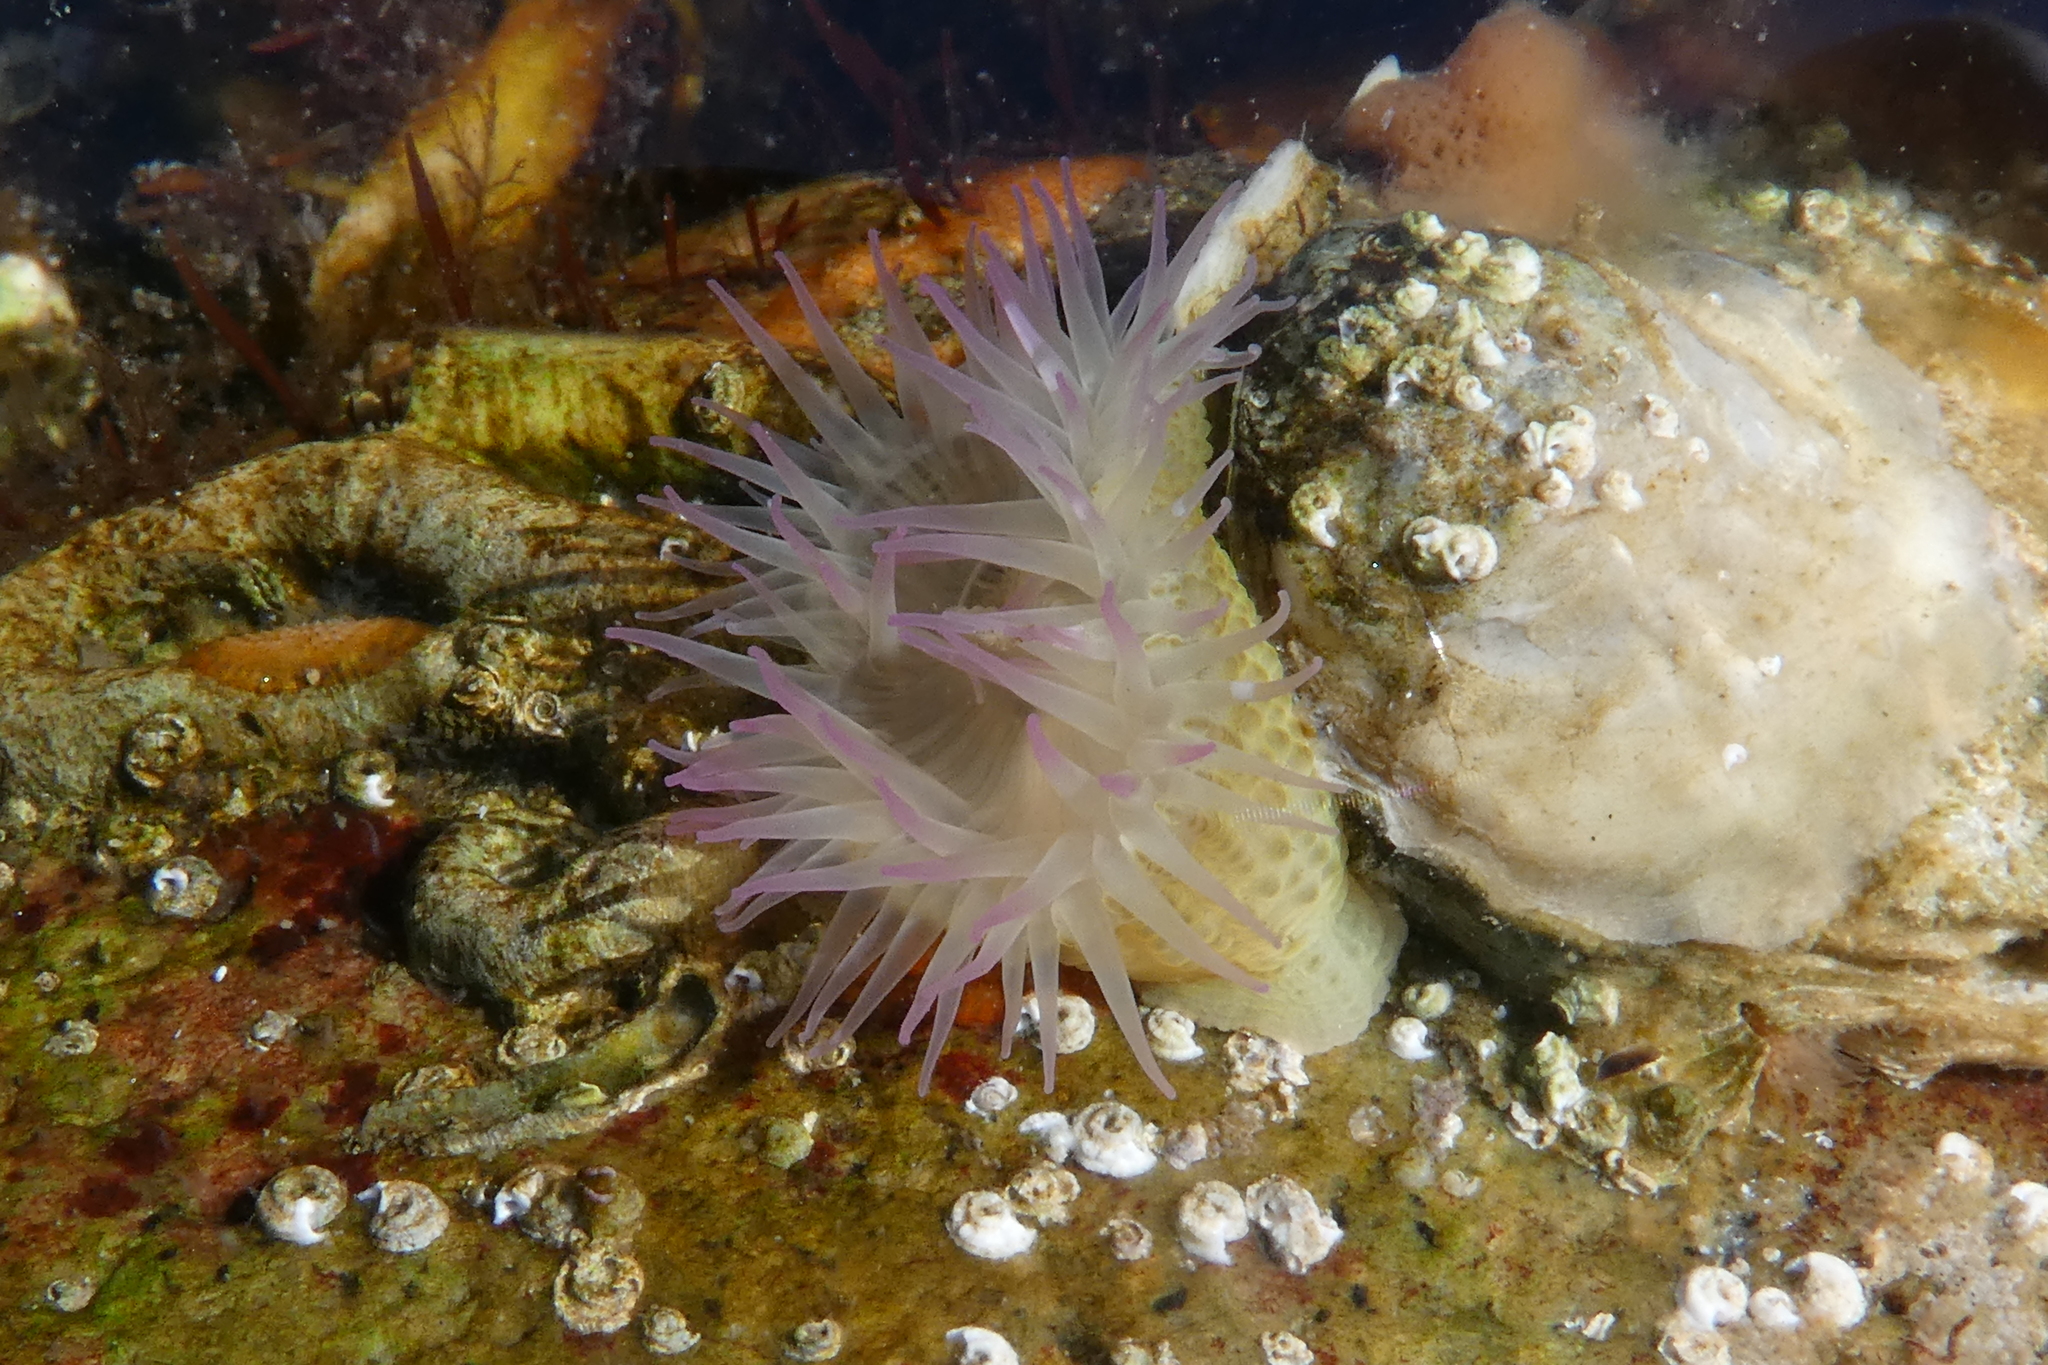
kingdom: Animalia
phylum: Cnidaria
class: Anthozoa
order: Actiniaria
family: Actiniidae
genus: Anthopleura
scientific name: Anthopleura elegantissima
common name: Clonal anemone
